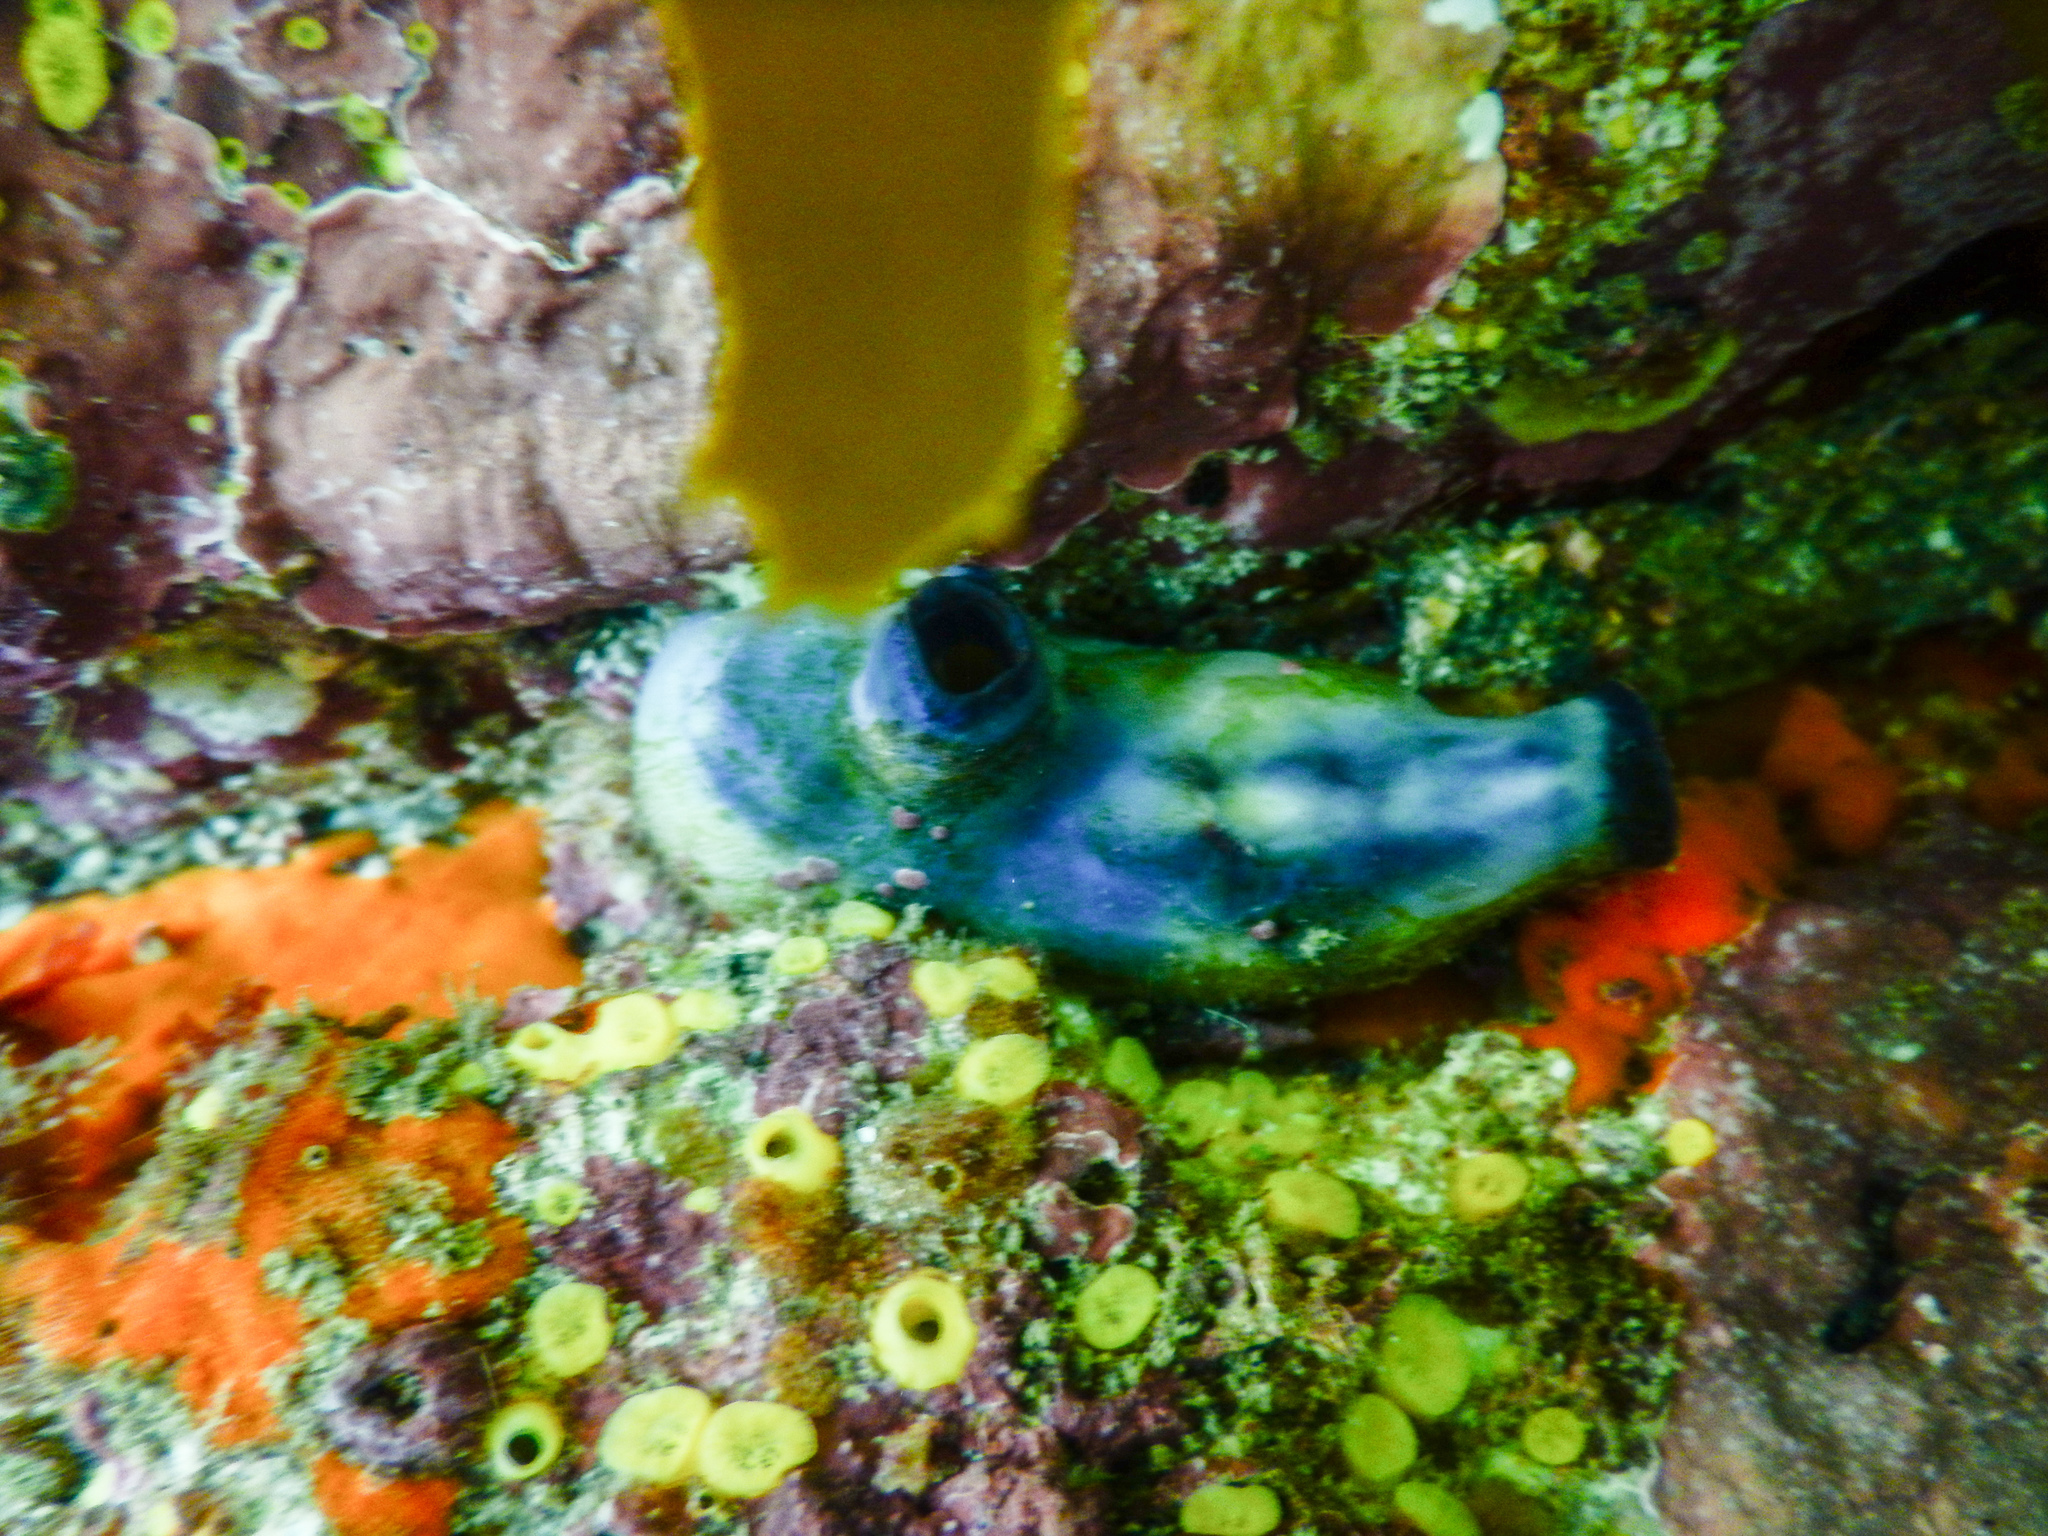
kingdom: Animalia
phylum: Chordata
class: Ascidiacea
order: Stolidobranchia
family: Styelidae
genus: Asterocarpa
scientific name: Asterocarpa coerulea
